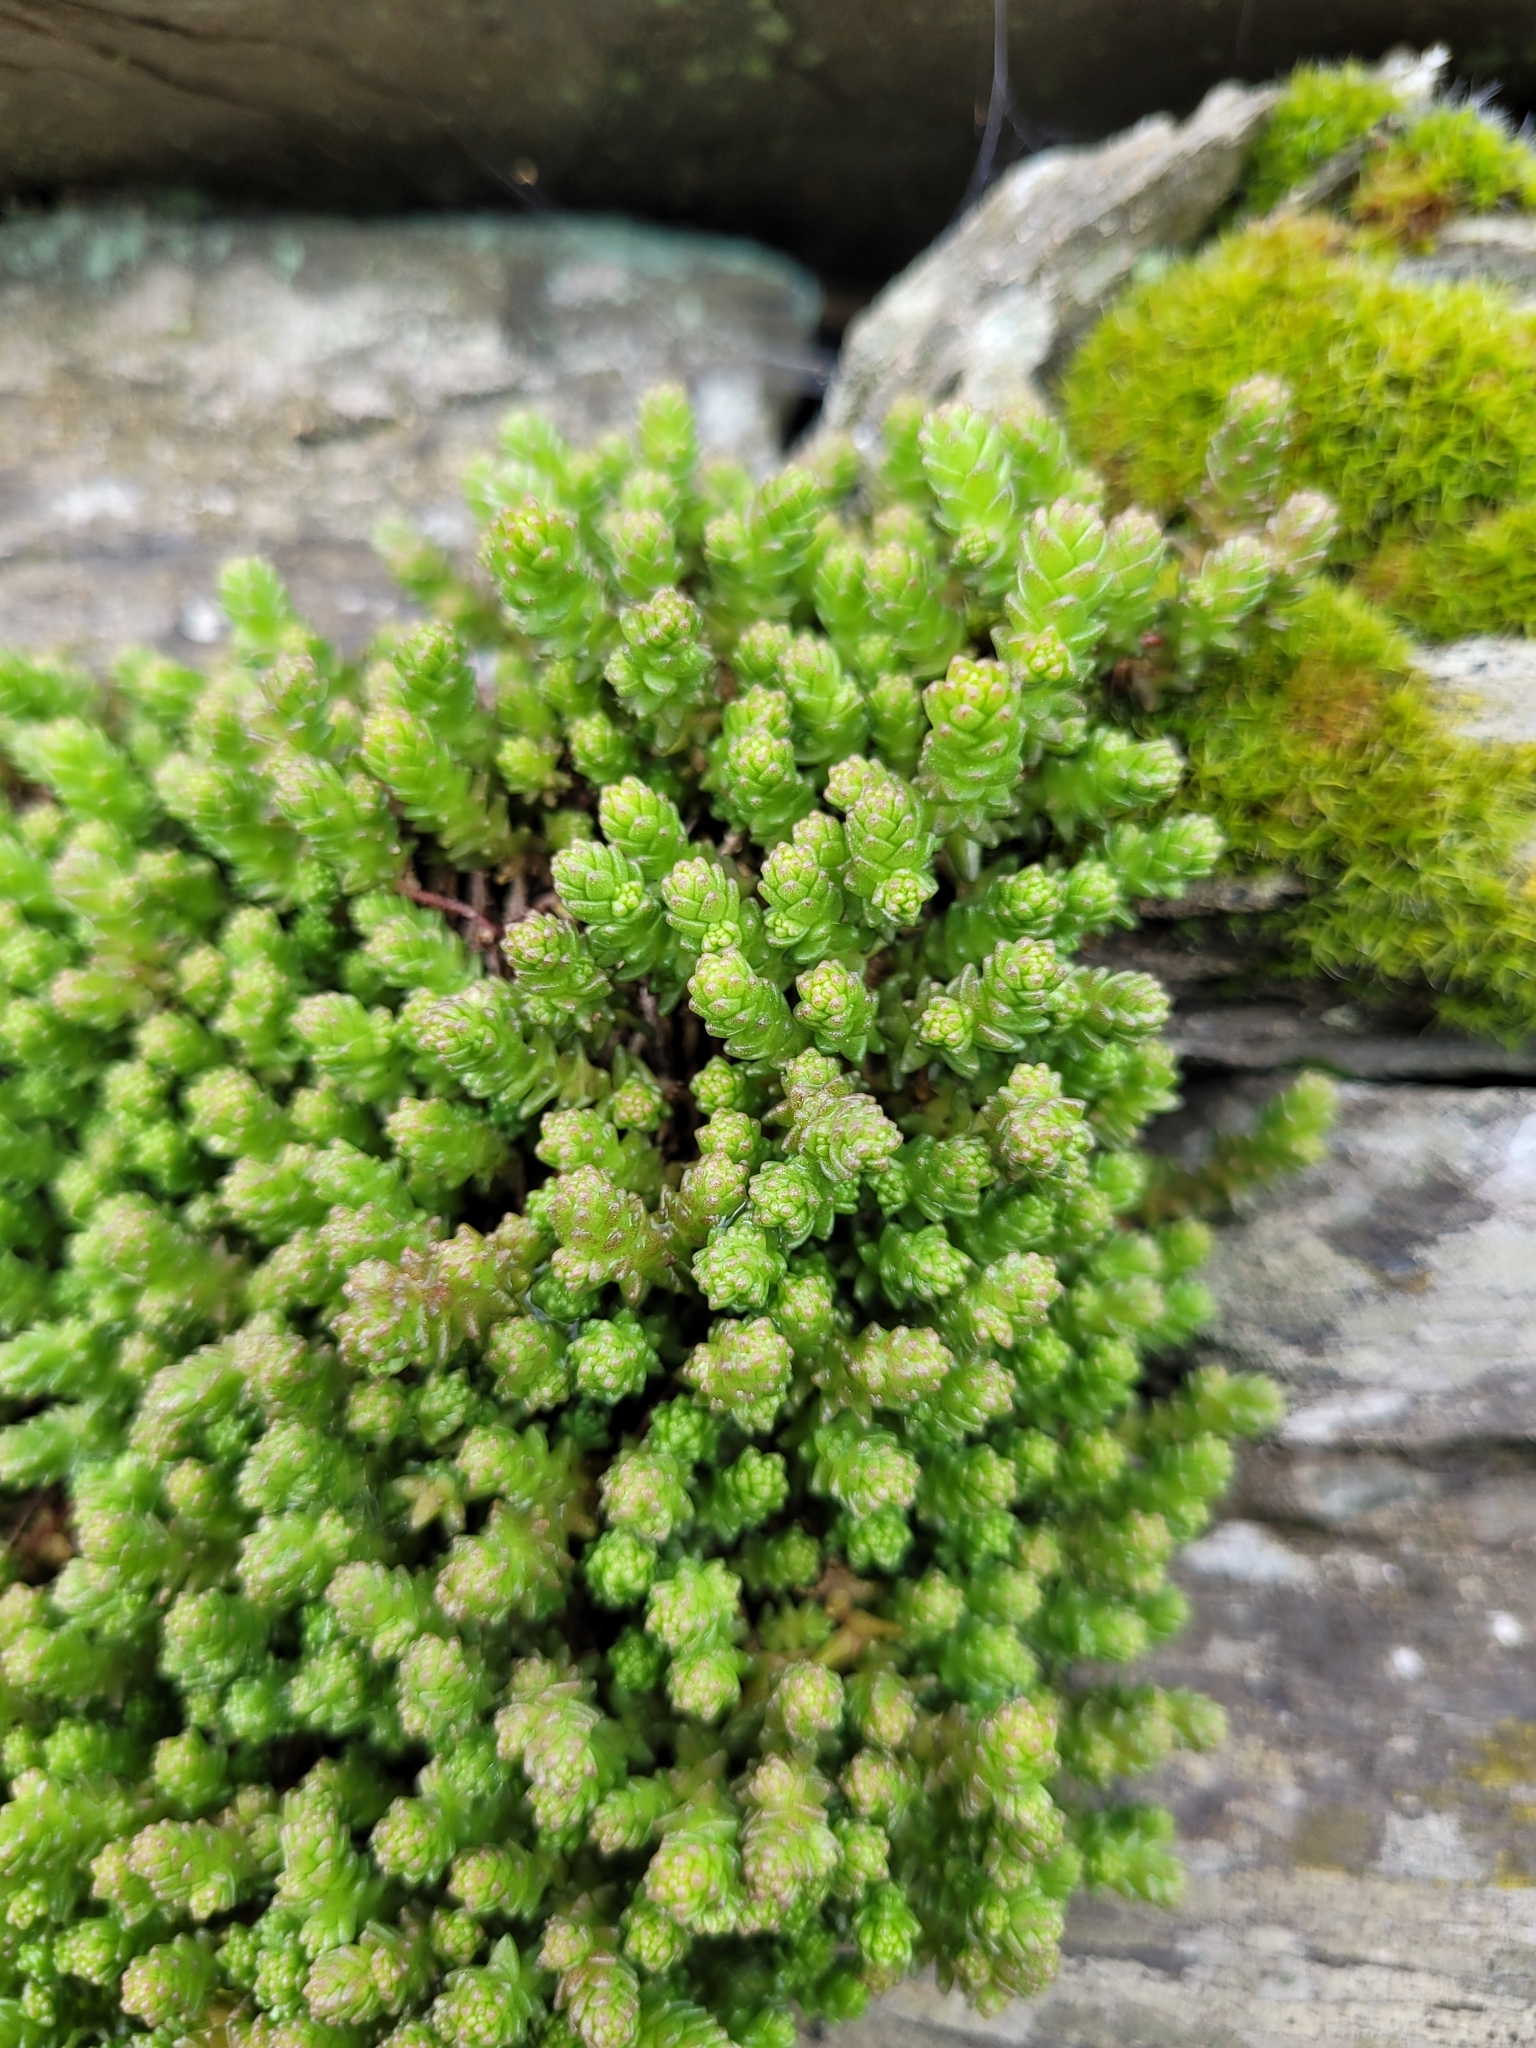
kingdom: Plantae
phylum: Tracheophyta
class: Magnoliopsida
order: Saxifragales
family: Crassulaceae
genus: Sedum
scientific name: Sedum acre
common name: Biting stonecrop
